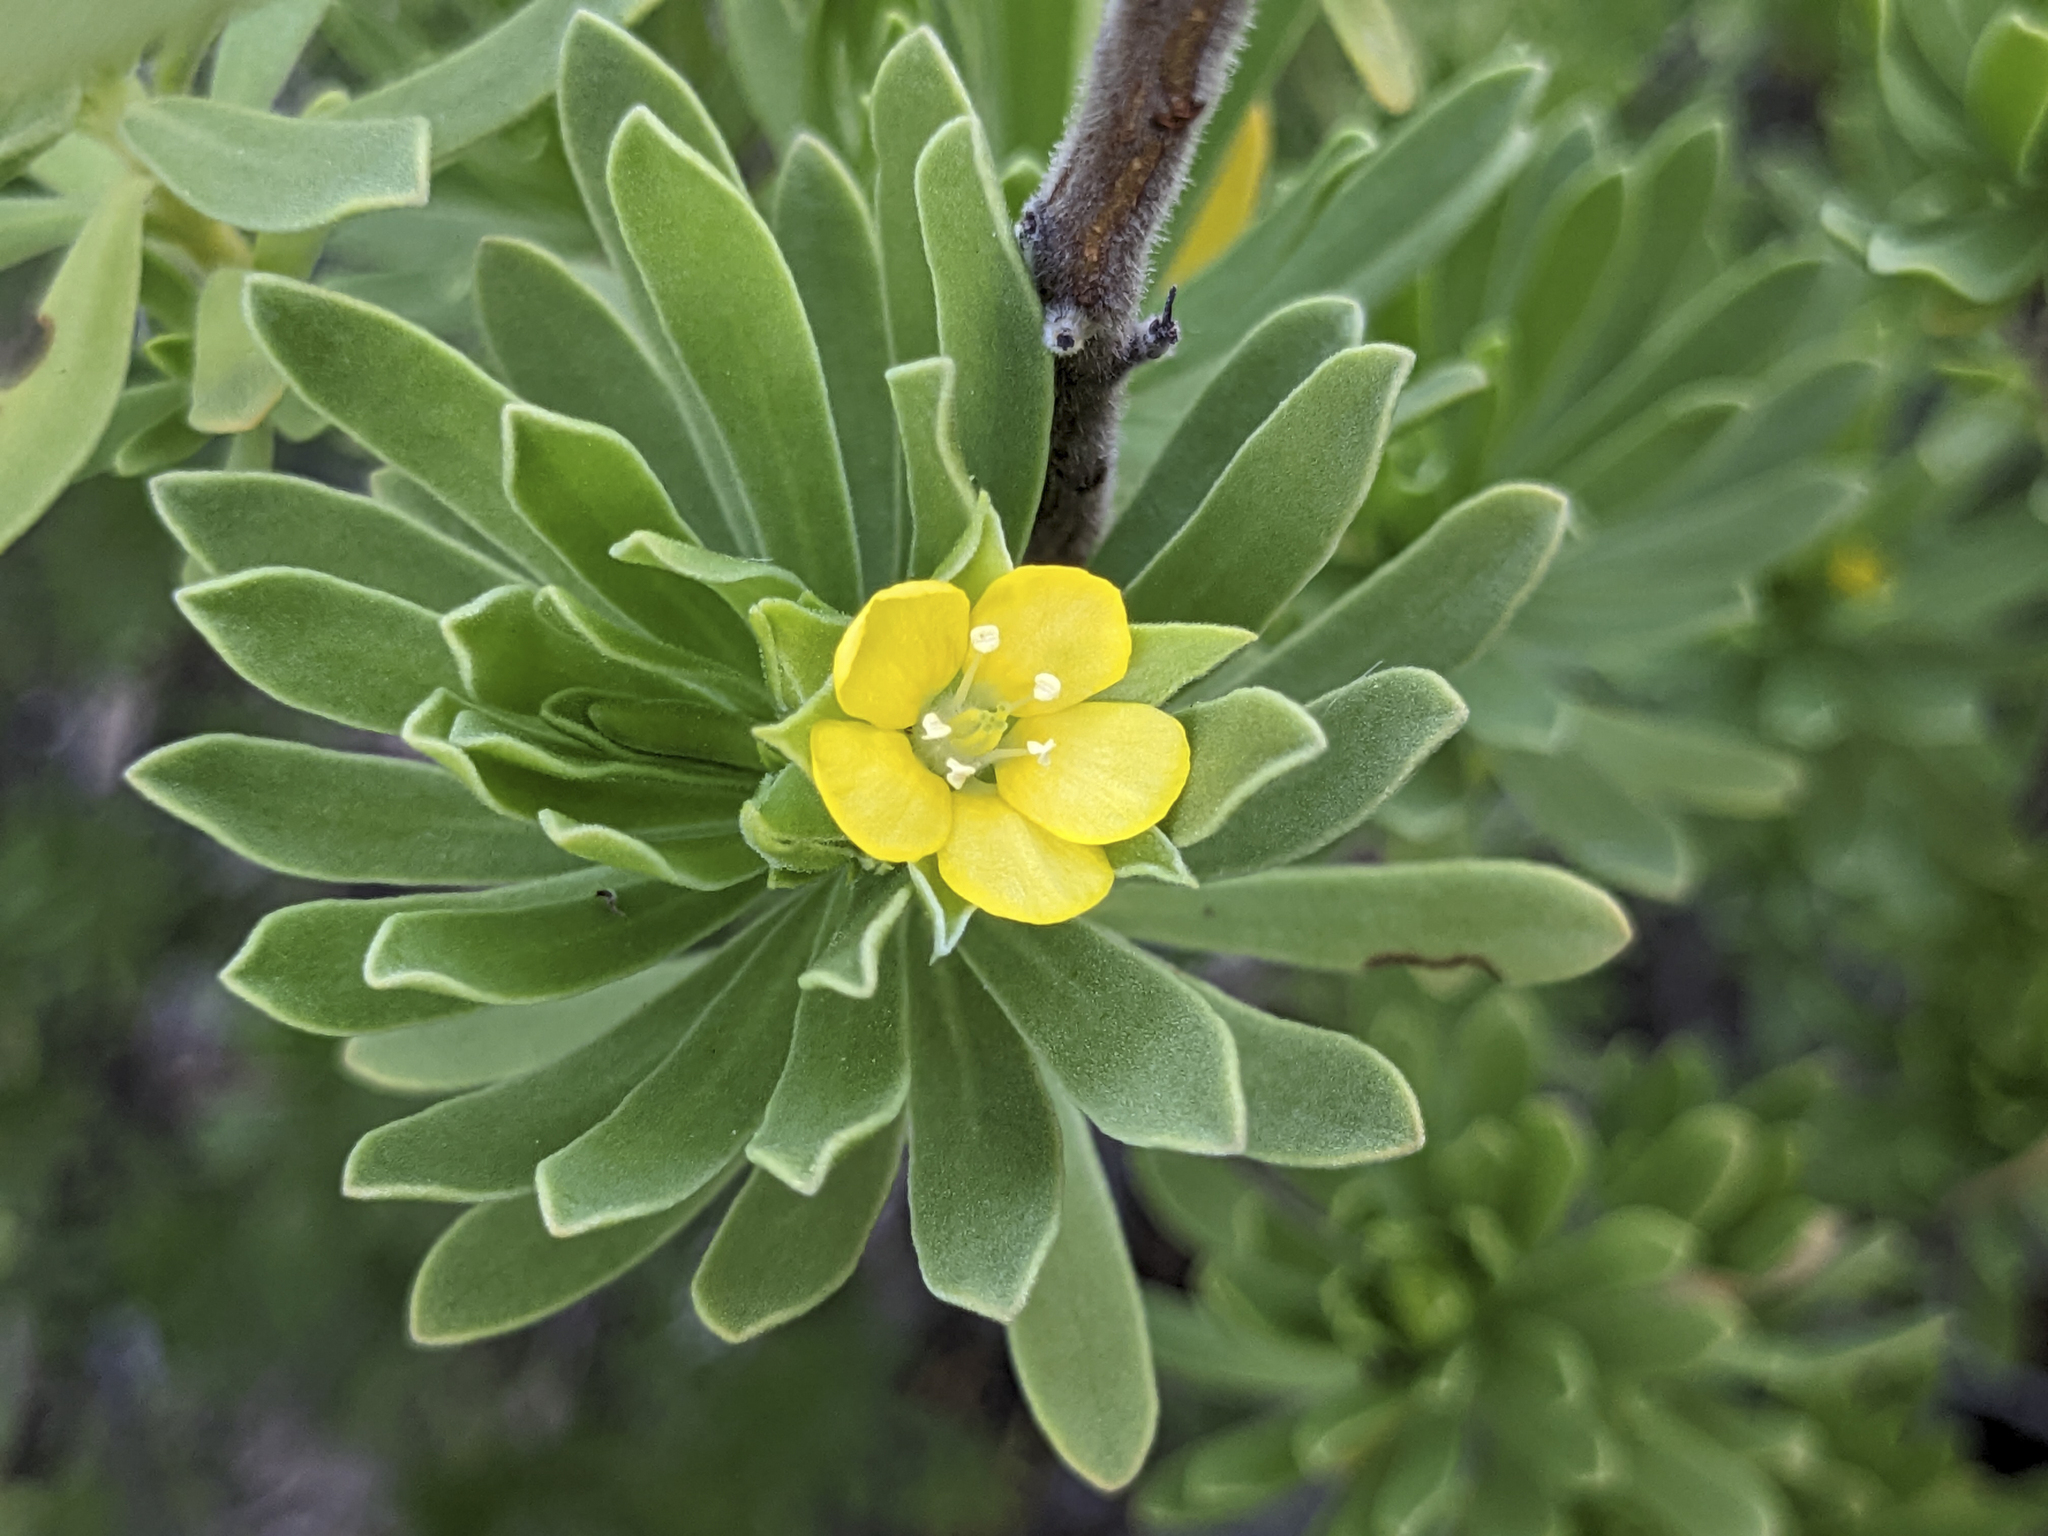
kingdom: Plantae
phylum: Tracheophyta
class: Magnoliopsida
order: Fabales
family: Surianaceae
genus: Suriana
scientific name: Suriana maritima
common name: Bay-cedar
